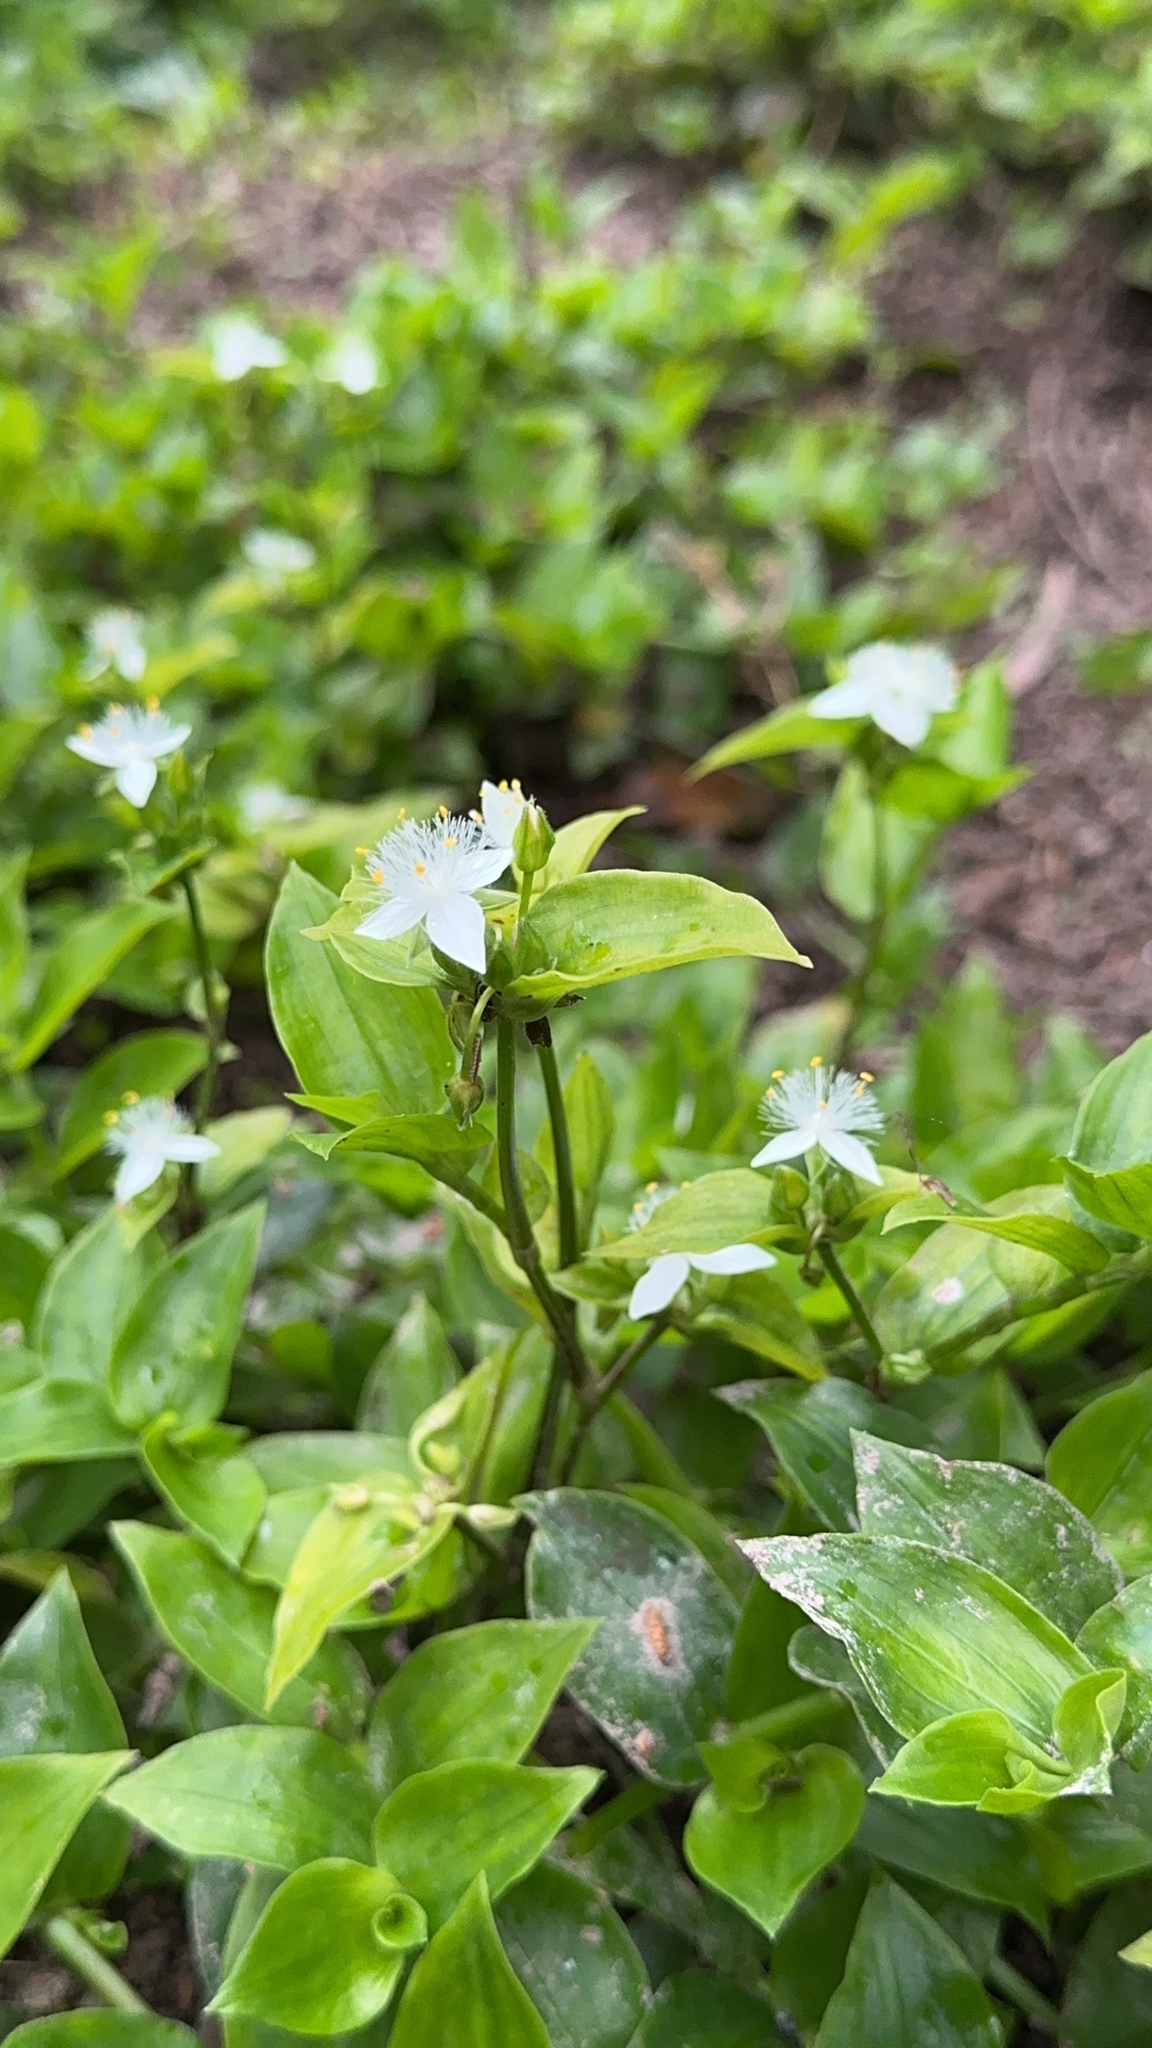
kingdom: Plantae
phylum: Tracheophyta
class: Liliopsida
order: Commelinales
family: Commelinaceae
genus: Tradescantia
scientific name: Tradescantia fluminensis
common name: Wandering-jew
